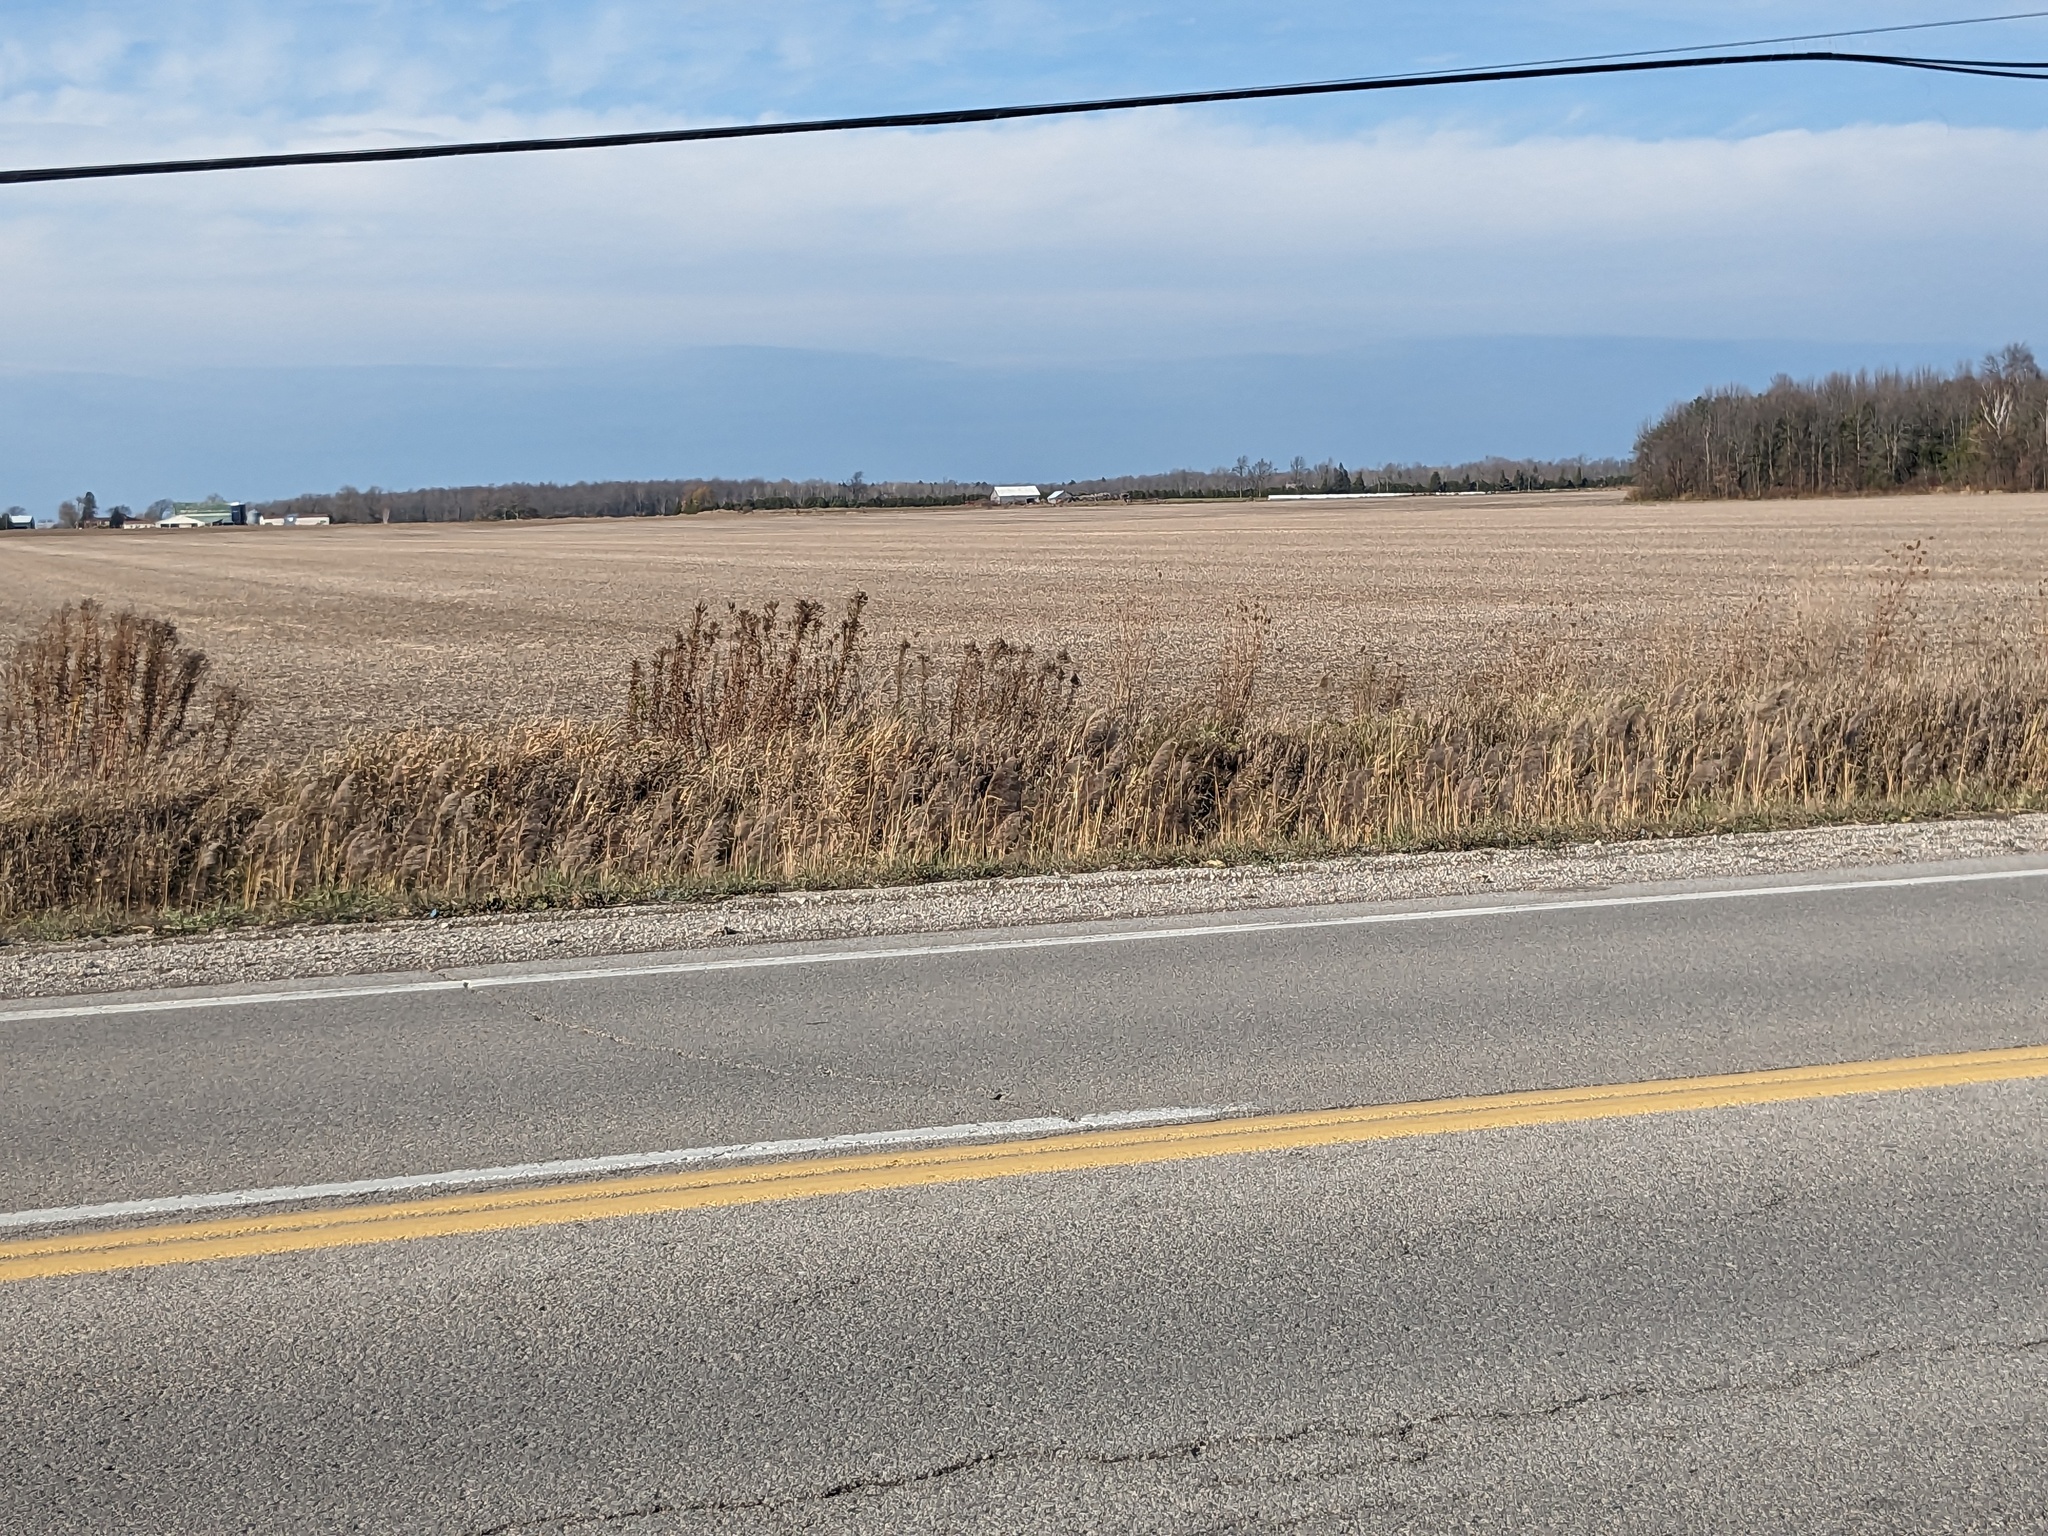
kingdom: Plantae
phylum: Tracheophyta
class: Liliopsida
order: Poales
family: Poaceae
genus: Phragmites
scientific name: Phragmites australis
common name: Common reed
